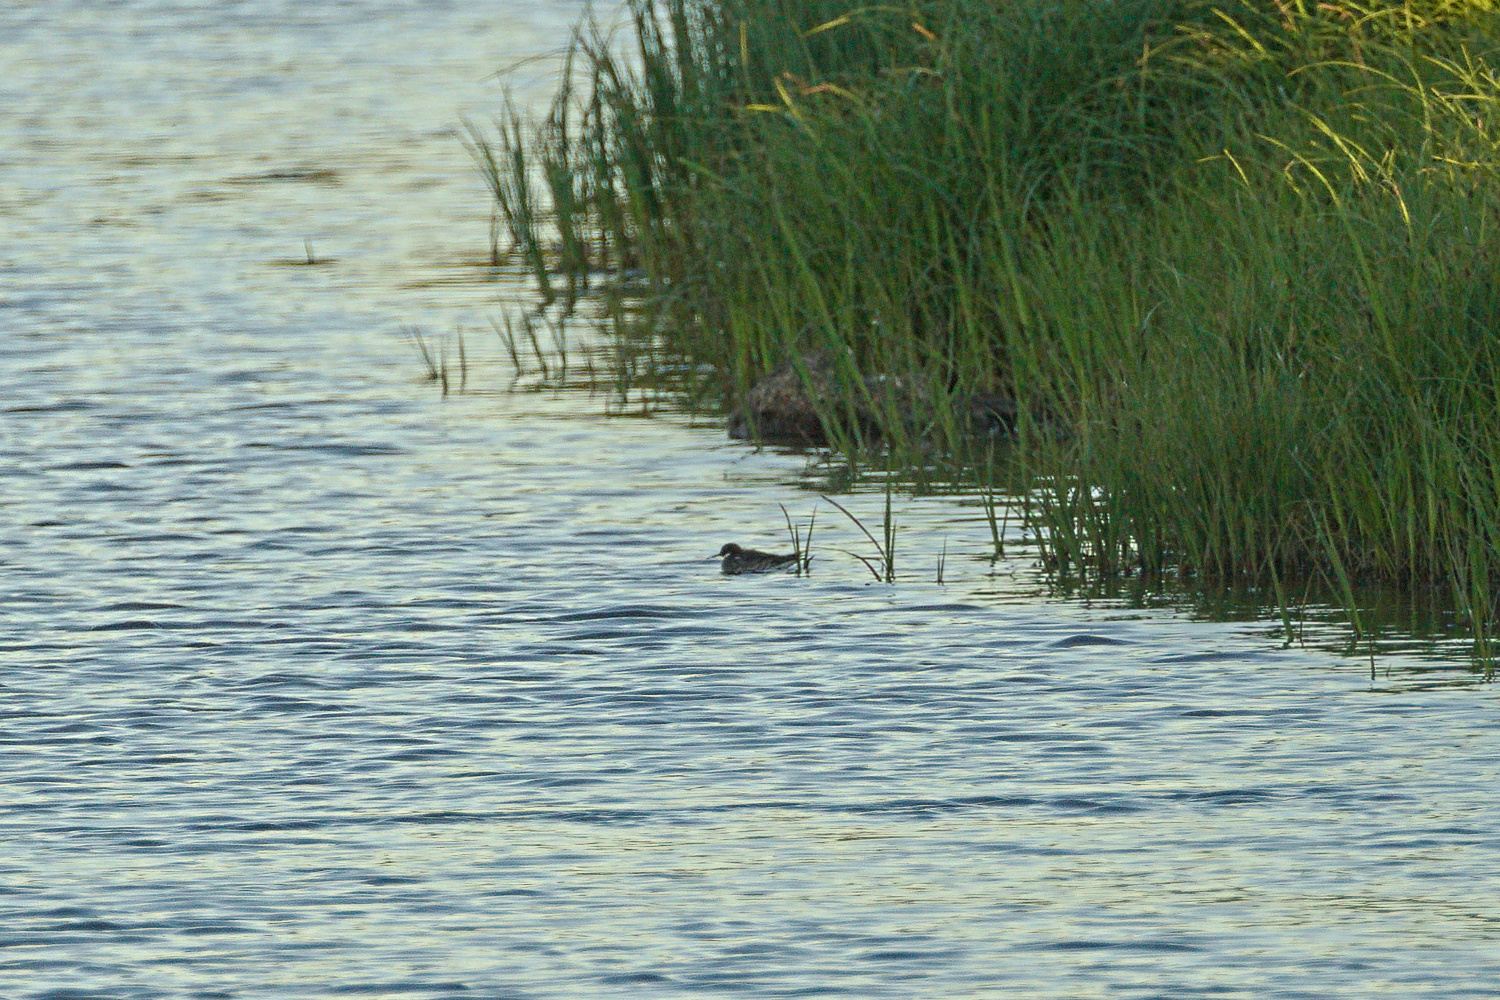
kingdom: Animalia
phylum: Chordata
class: Aves
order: Charadriiformes
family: Scolopacidae
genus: Phalaropus
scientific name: Phalaropus lobatus
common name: Red-necked phalarope
